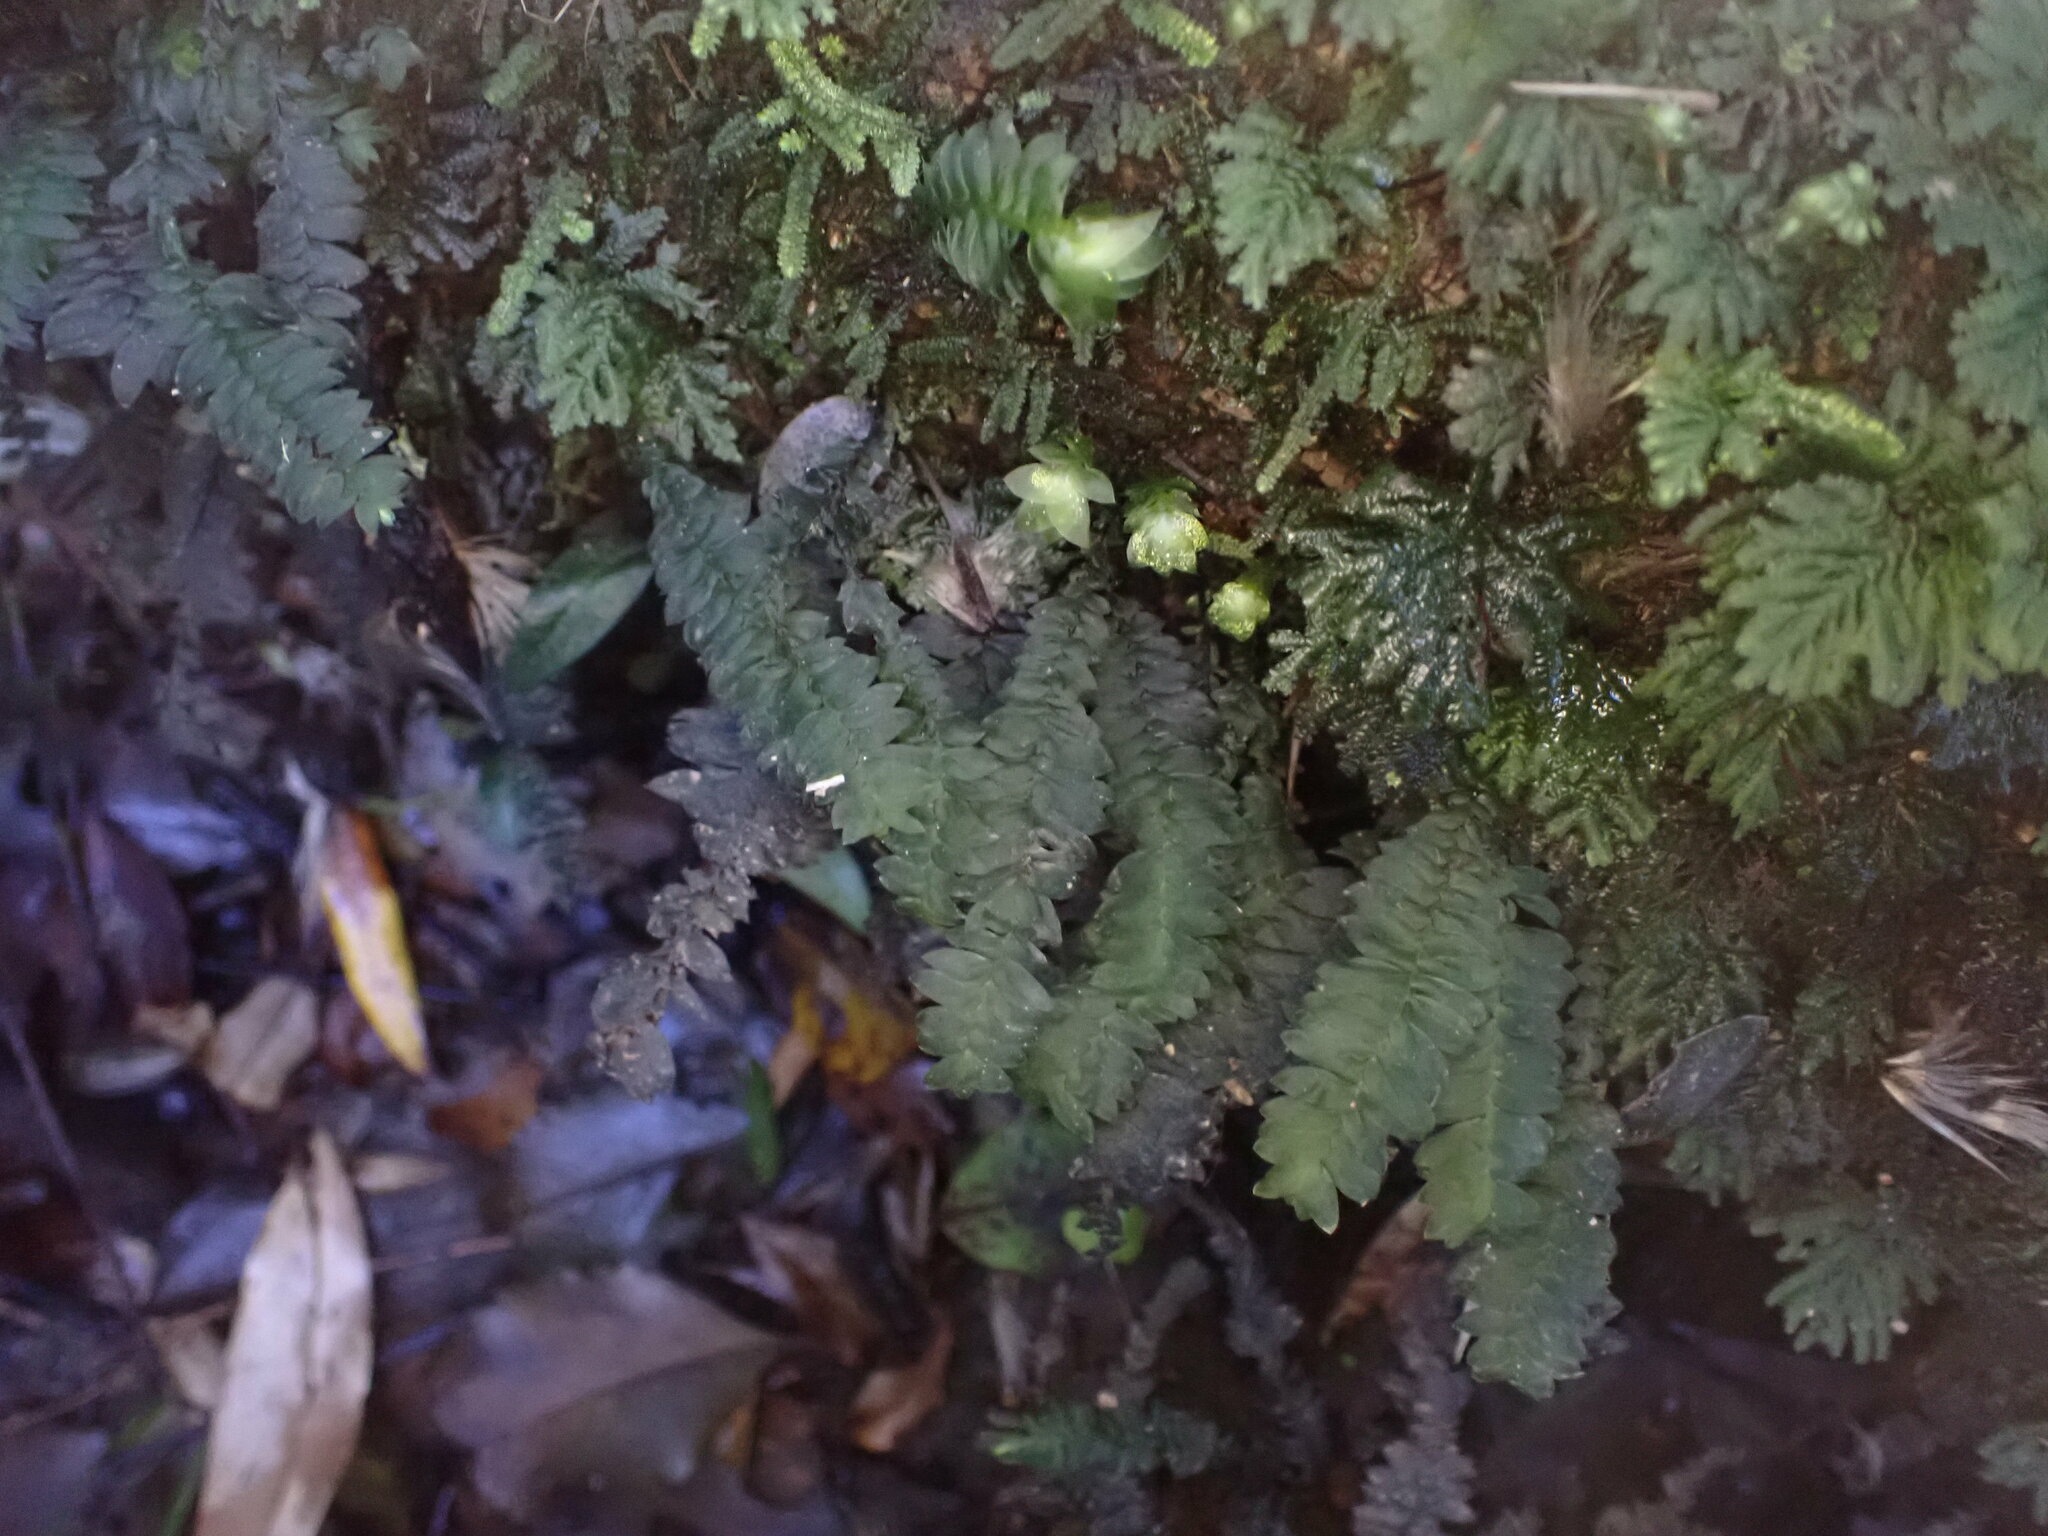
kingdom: Plantae
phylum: Bryophyta
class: Bryopsida
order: Hypopterygiales
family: Hypopterygiaceae
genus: Cyathophorum
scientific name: Cyathophorum bulbosum
